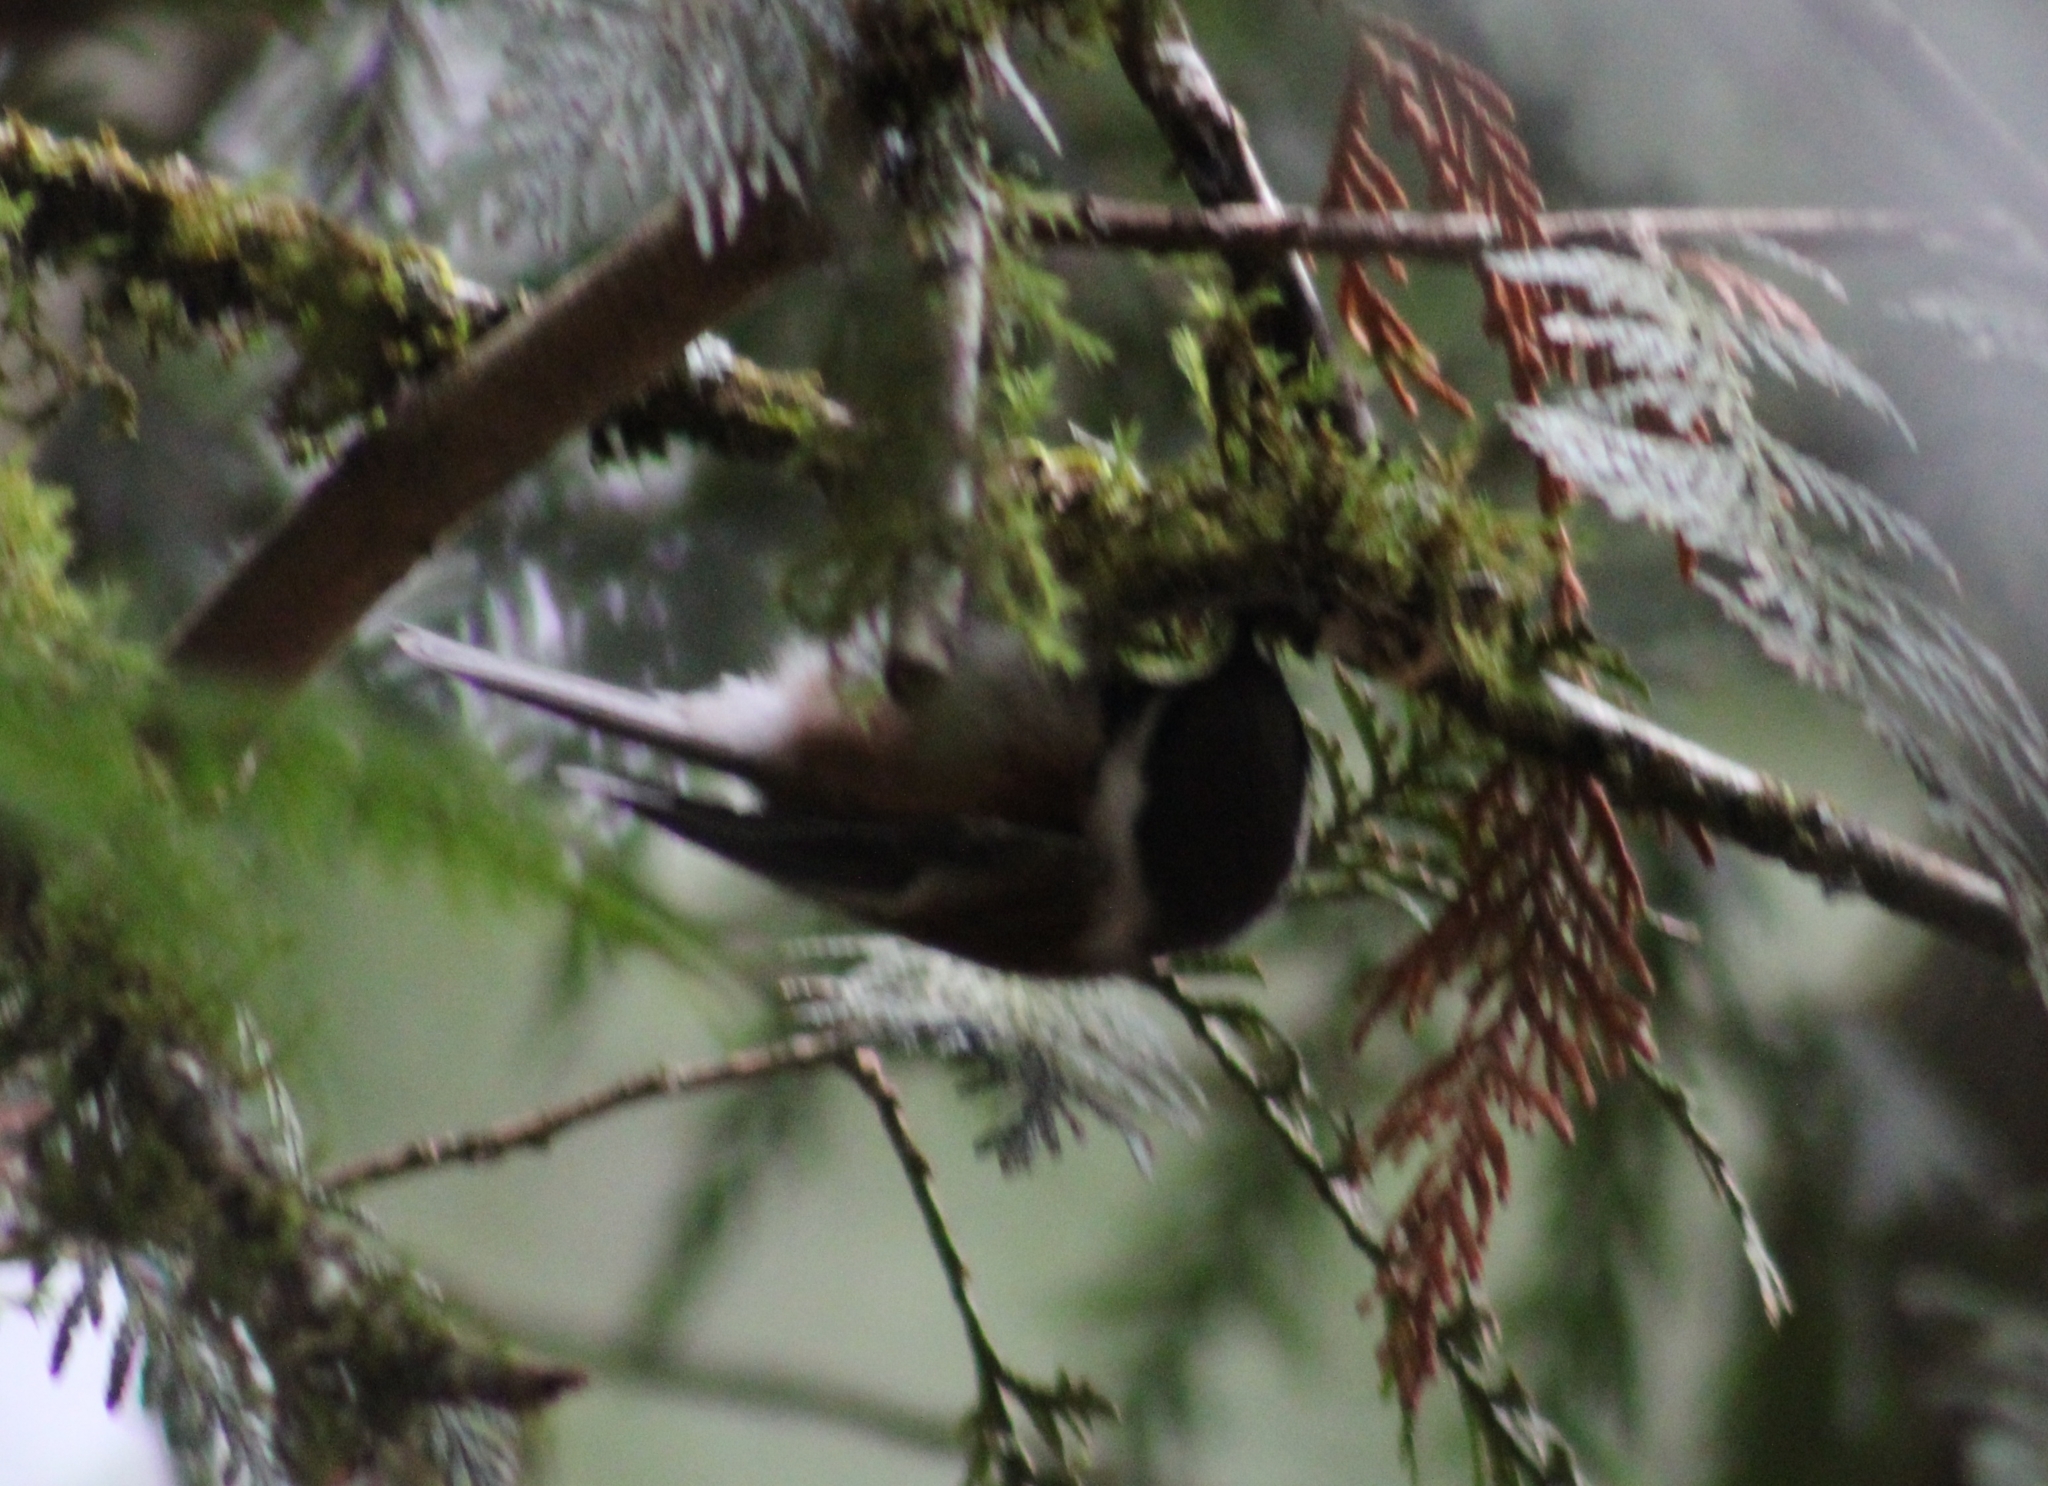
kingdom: Animalia
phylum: Chordata
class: Aves
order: Passeriformes
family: Paridae
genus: Poecile
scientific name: Poecile rufescens
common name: Chestnut-backed chickadee
